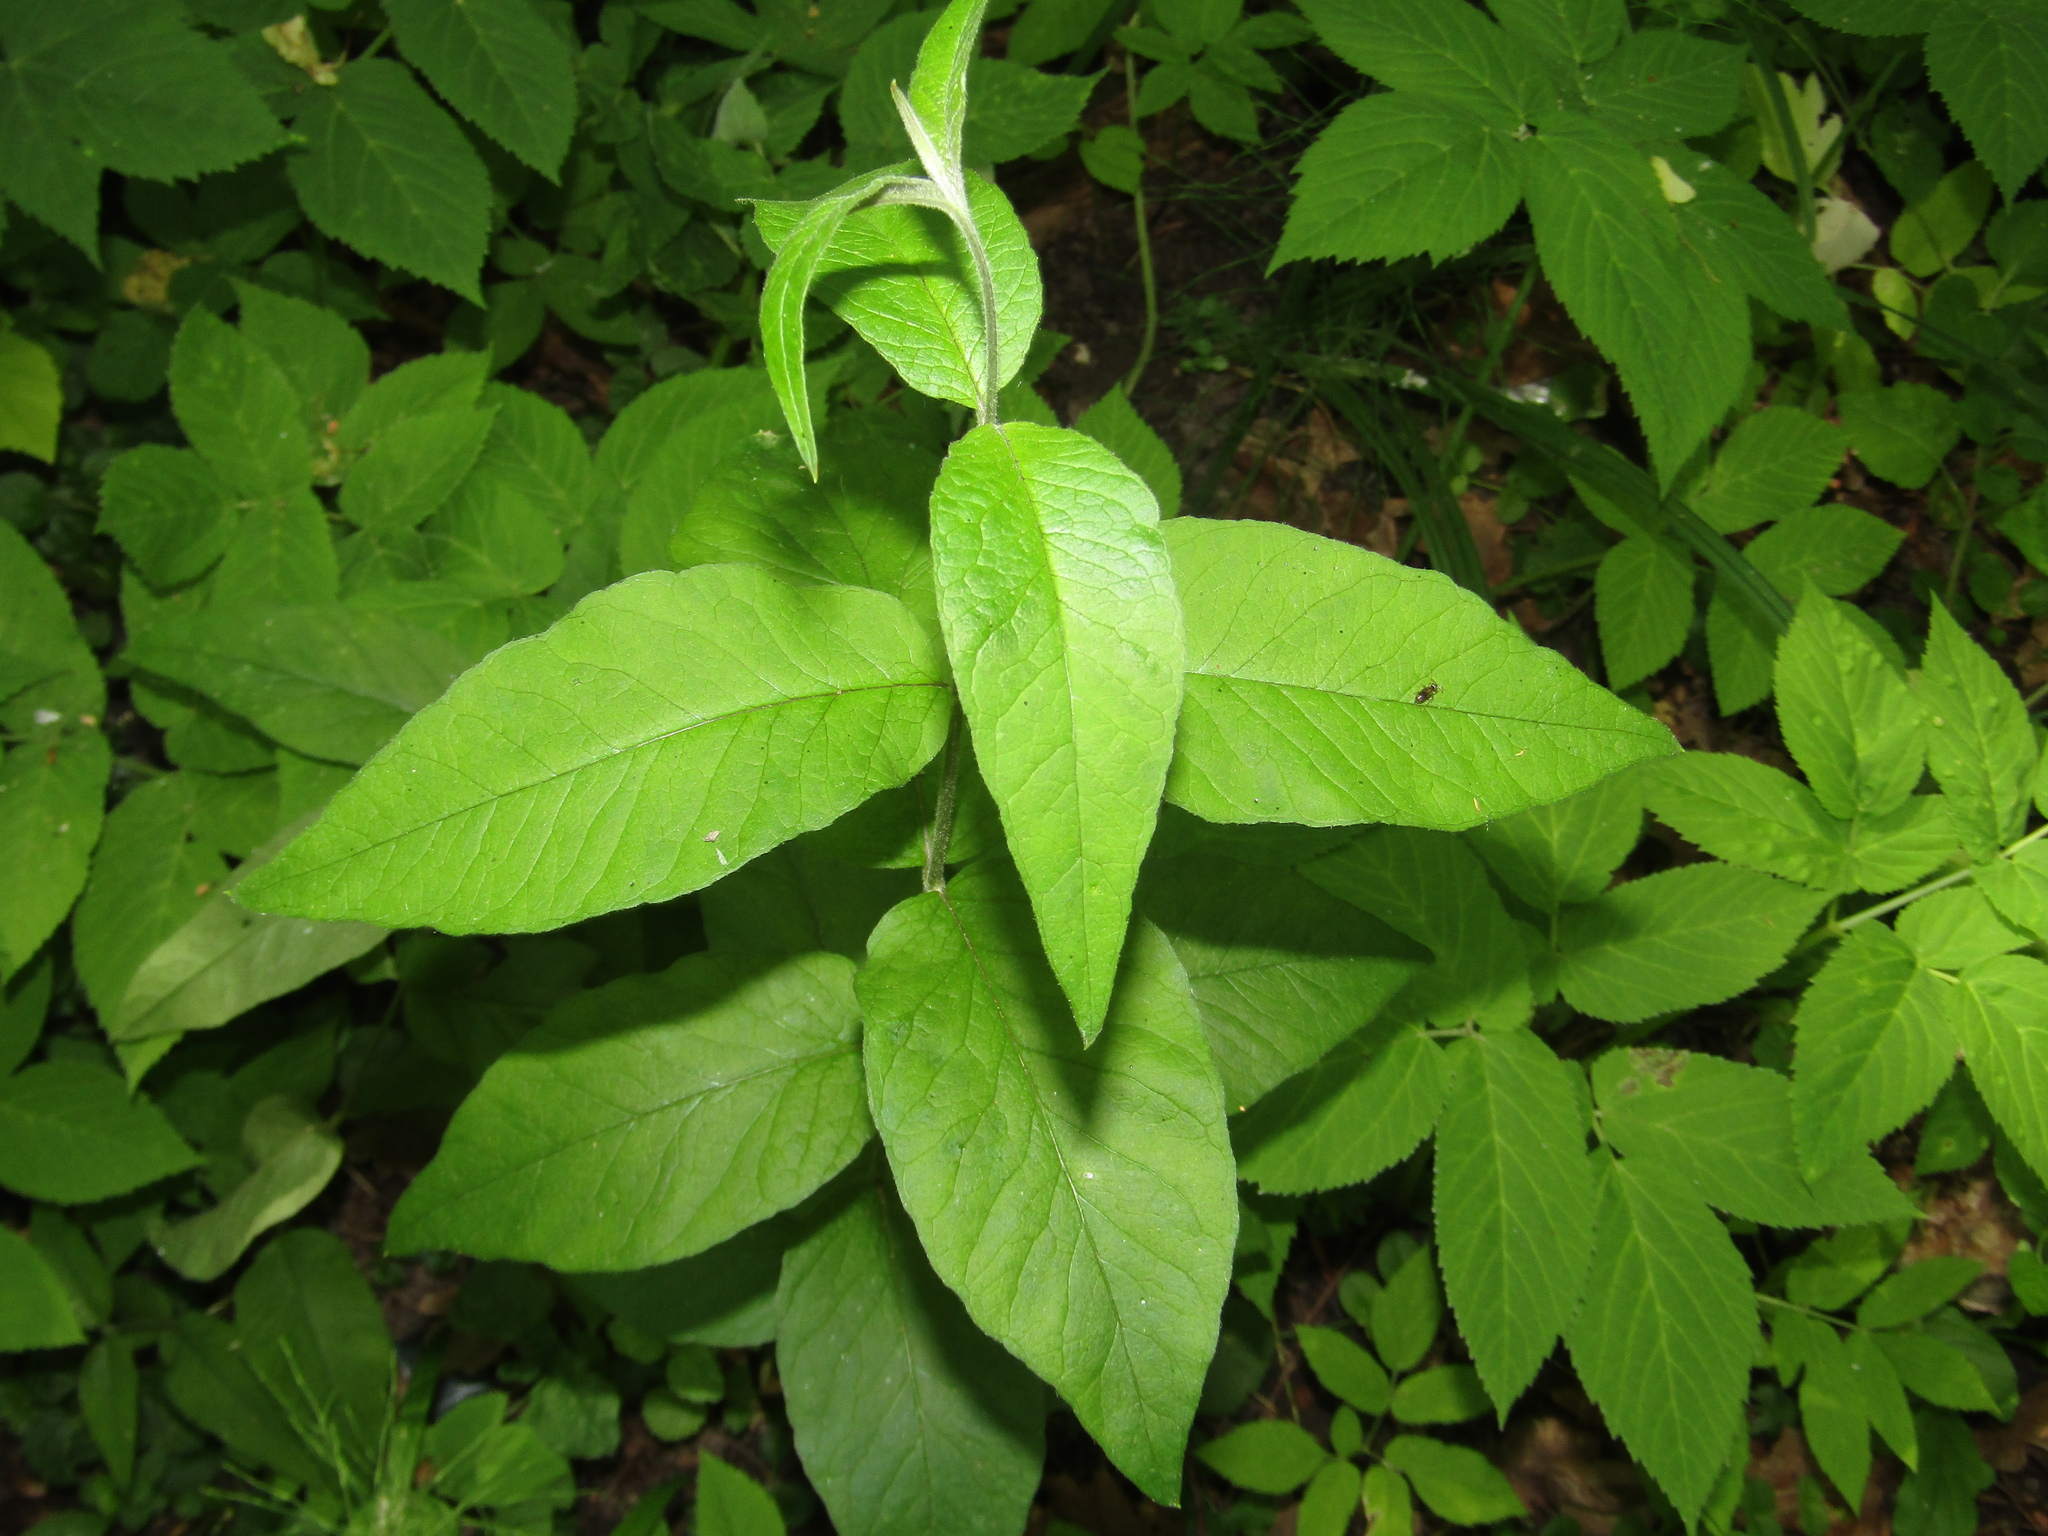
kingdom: Plantae
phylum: Tracheophyta
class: Magnoliopsida
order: Ericales
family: Primulaceae
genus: Lysimachia
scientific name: Lysimachia vulgaris
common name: Yellow loosestrife
